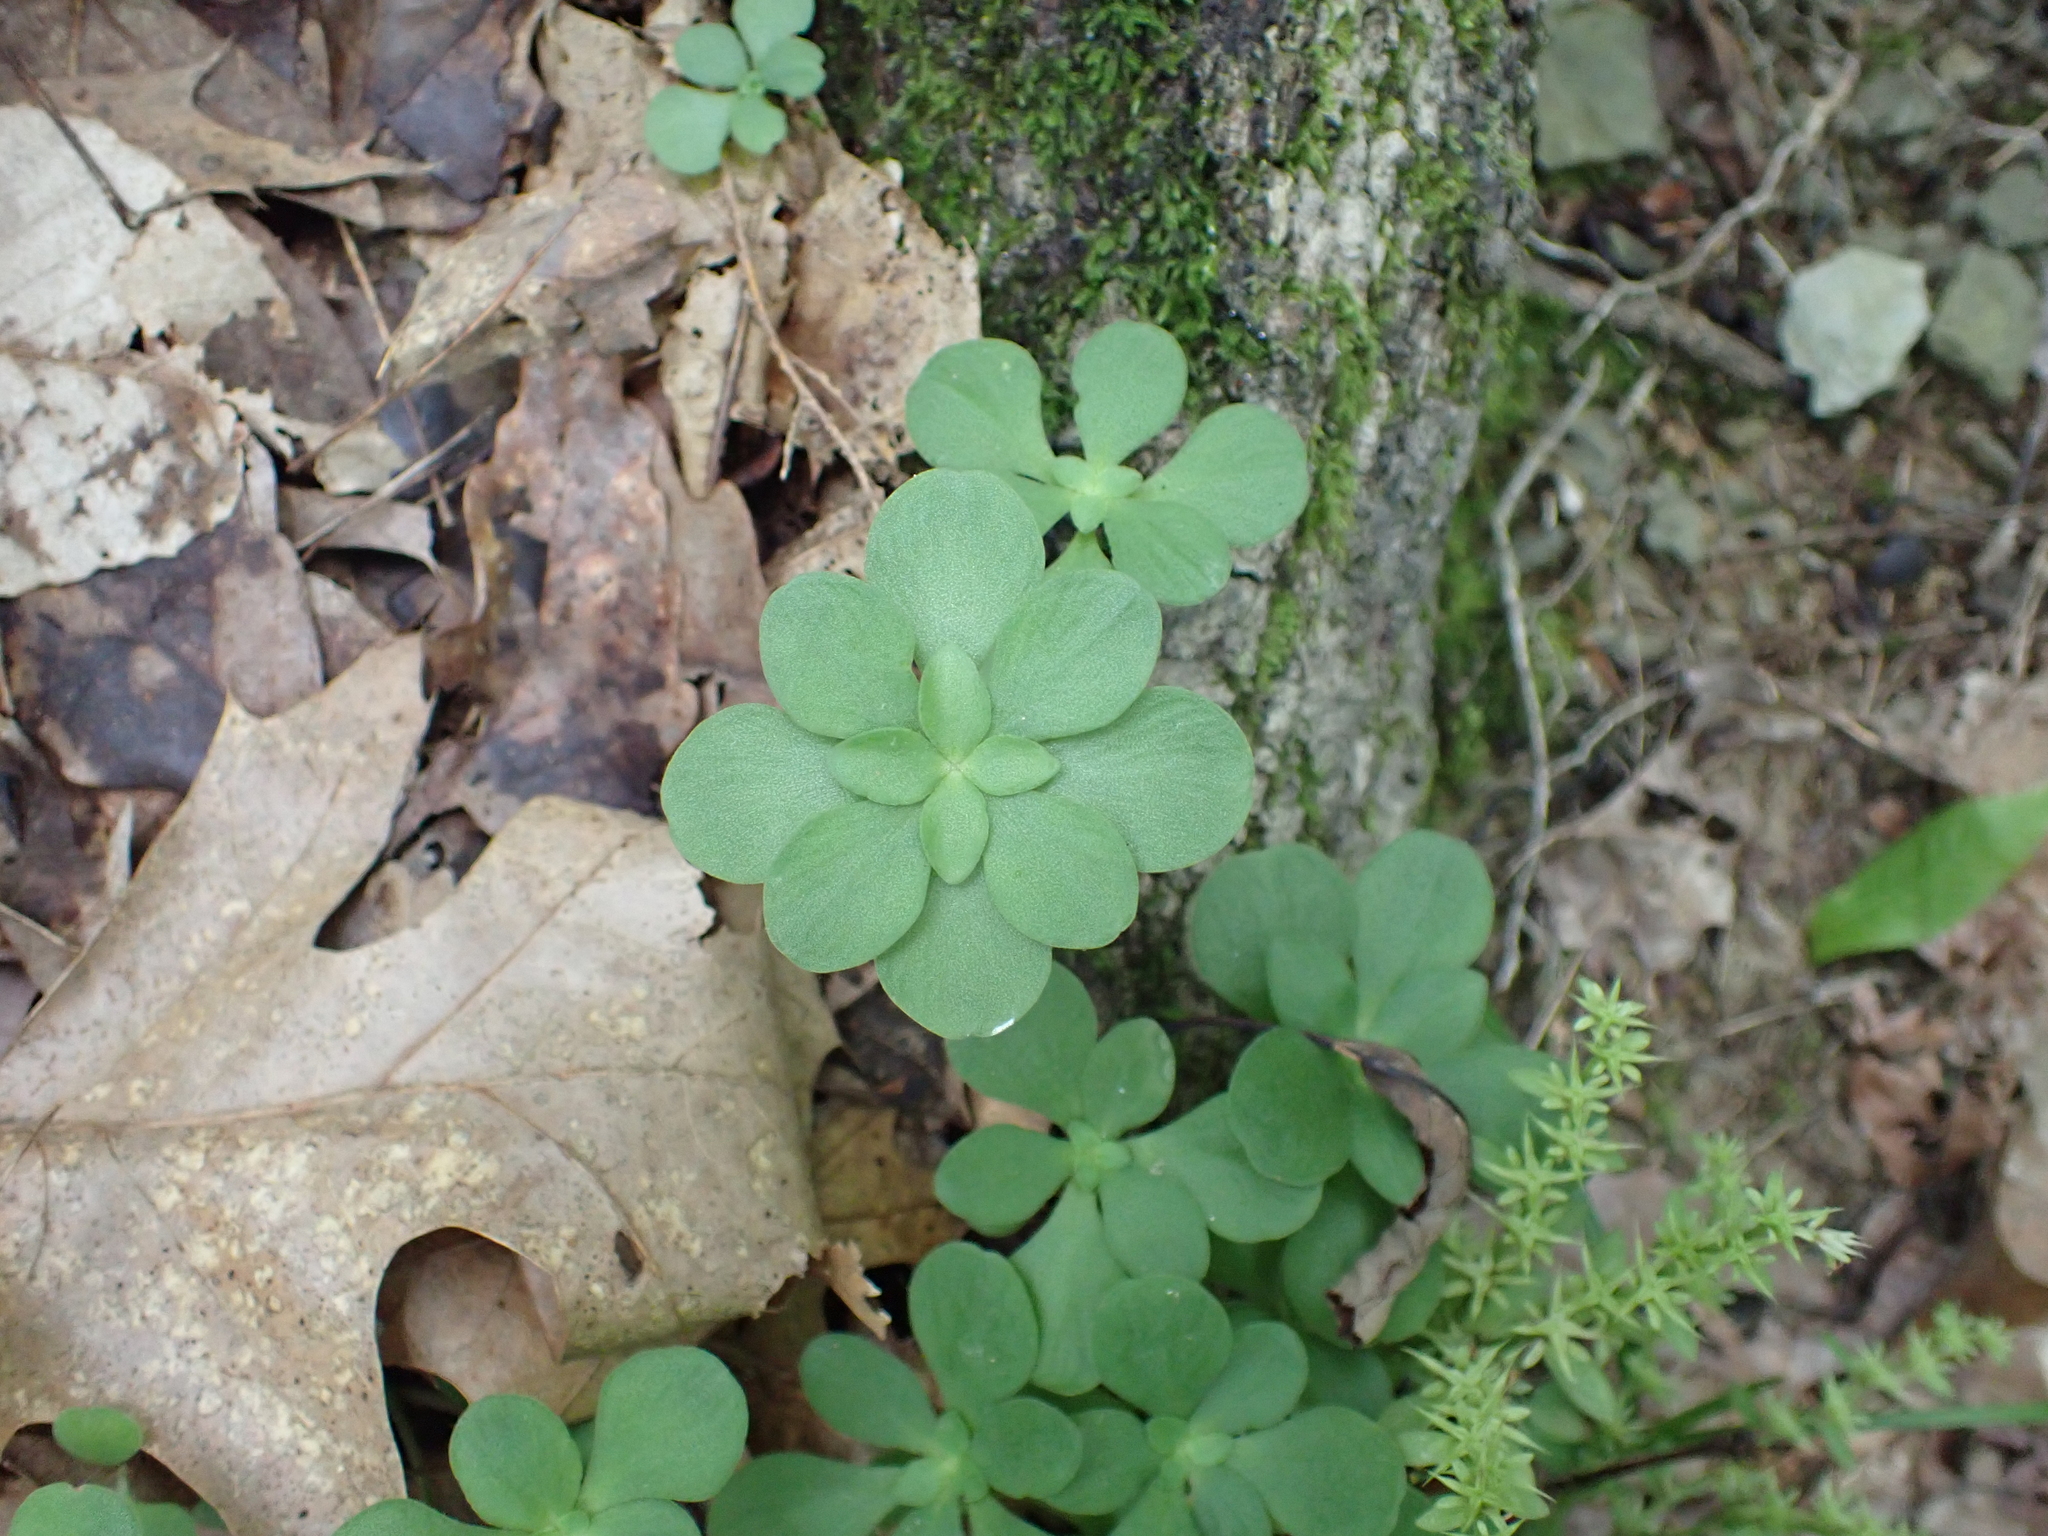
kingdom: Plantae
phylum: Tracheophyta
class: Magnoliopsida
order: Saxifragales
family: Crassulaceae
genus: Sedum
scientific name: Sedum ternatum
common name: Wild stonecrop
